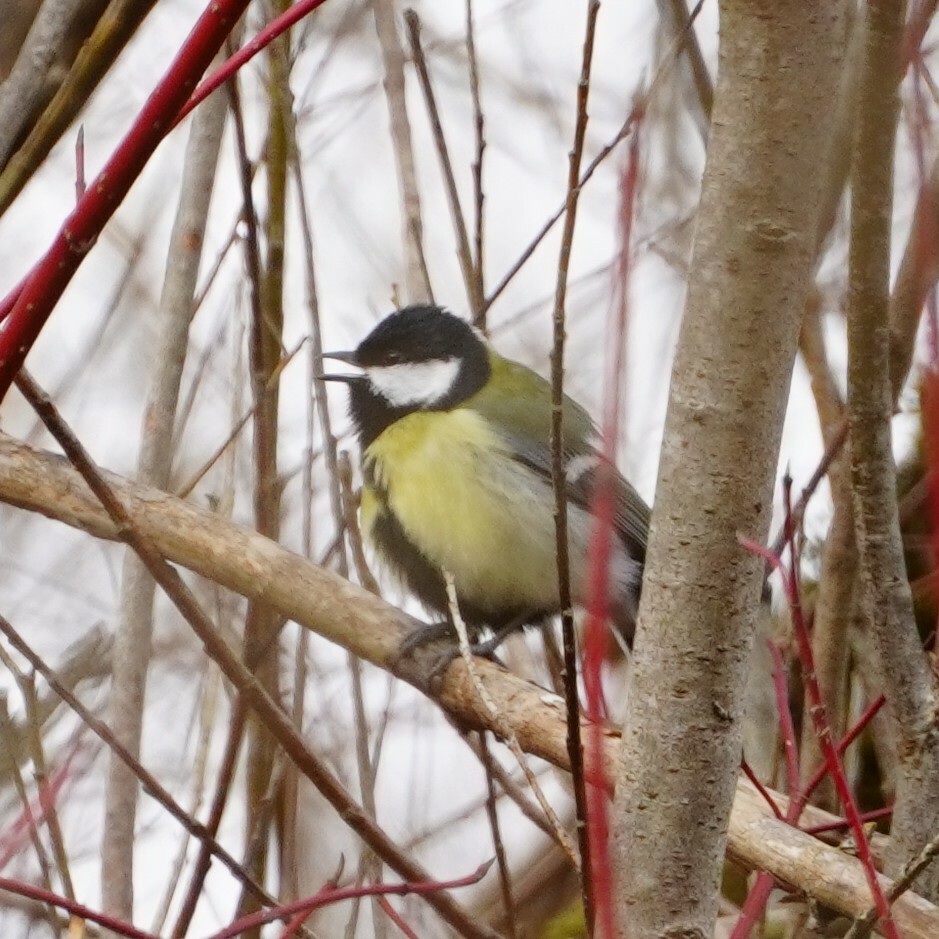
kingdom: Animalia
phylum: Chordata
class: Aves
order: Passeriformes
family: Paridae
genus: Parus
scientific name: Parus major
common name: Great tit
